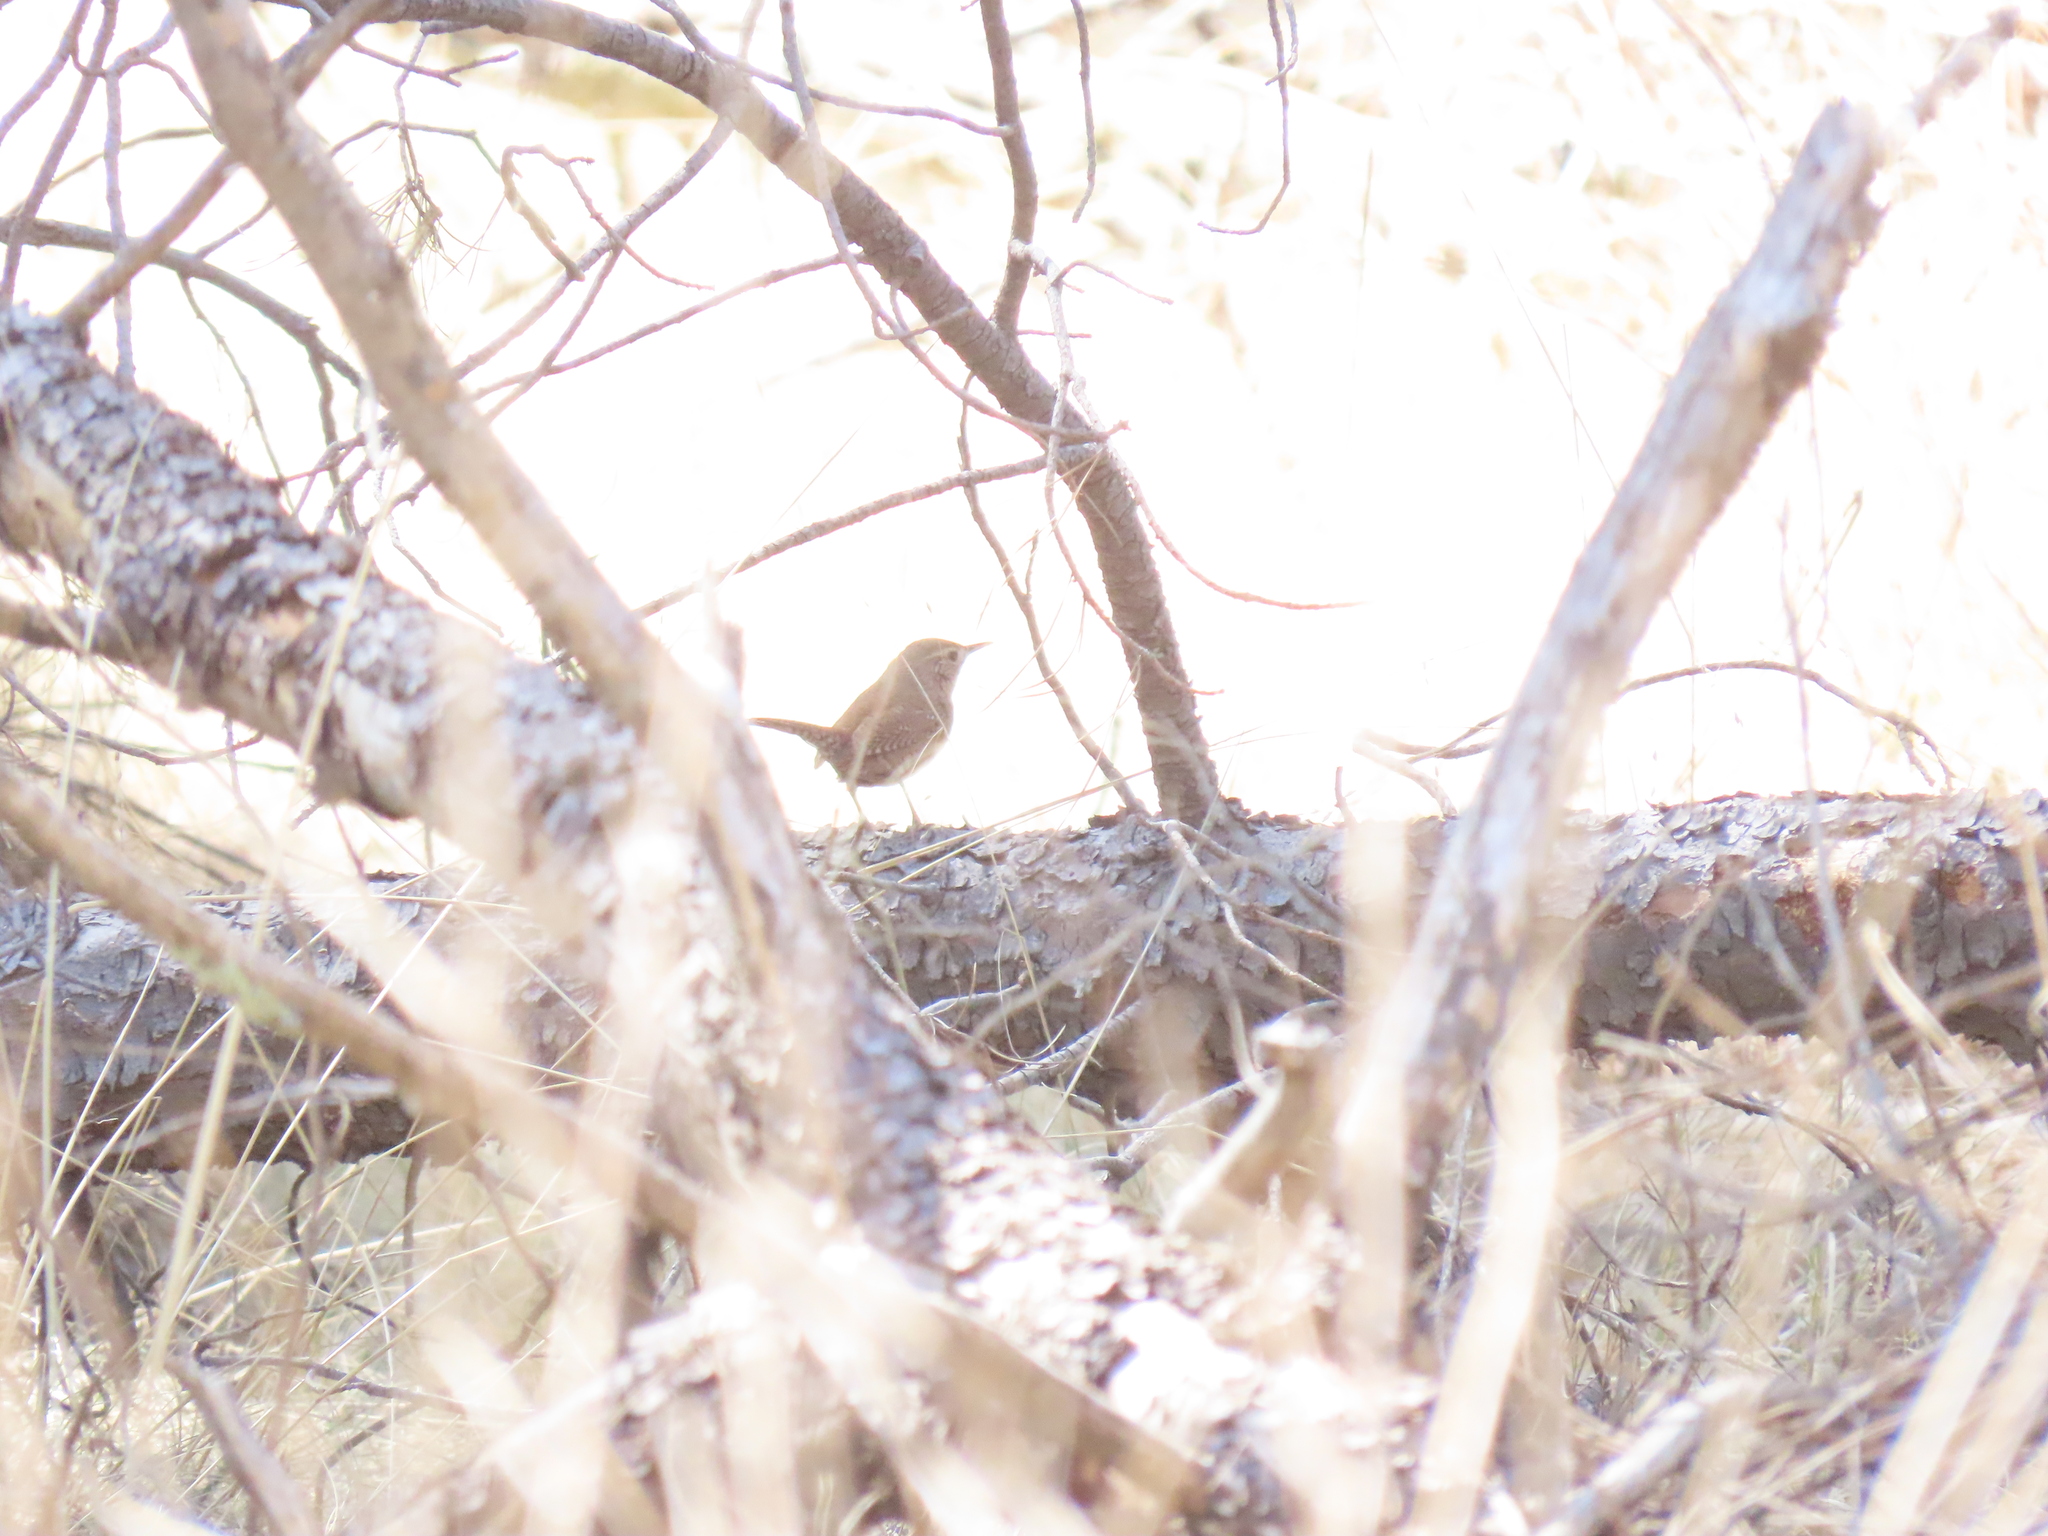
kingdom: Animalia
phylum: Chordata
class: Aves
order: Passeriformes
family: Troglodytidae
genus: Troglodytes
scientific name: Troglodytes aedon
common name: House wren
